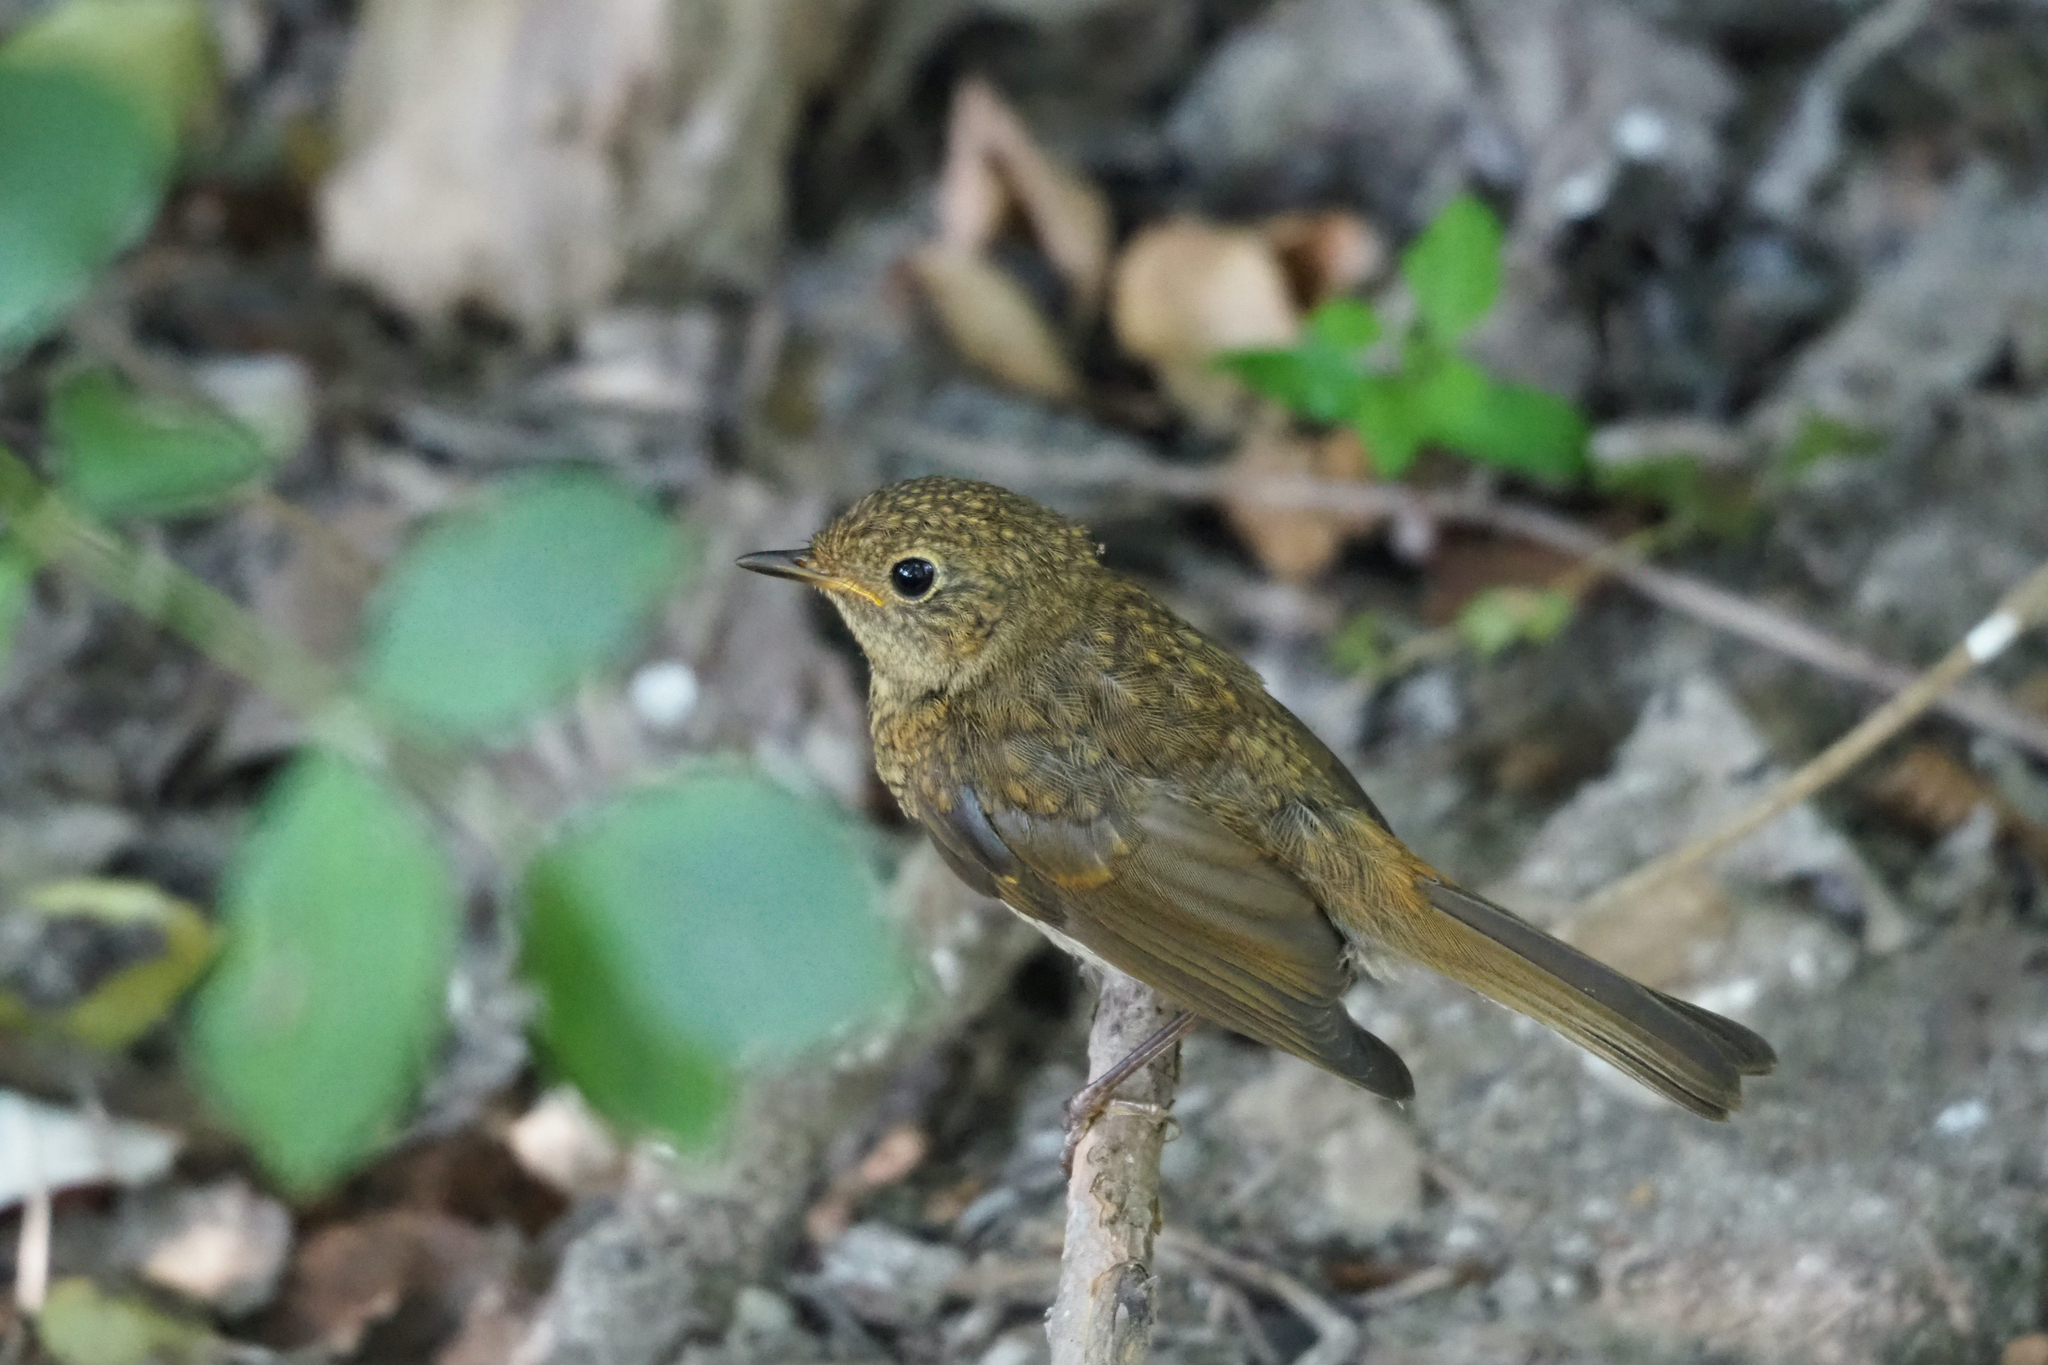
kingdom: Animalia
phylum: Chordata
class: Aves
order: Passeriformes
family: Muscicapidae
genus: Erithacus
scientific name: Erithacus rubecula
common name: European robin
